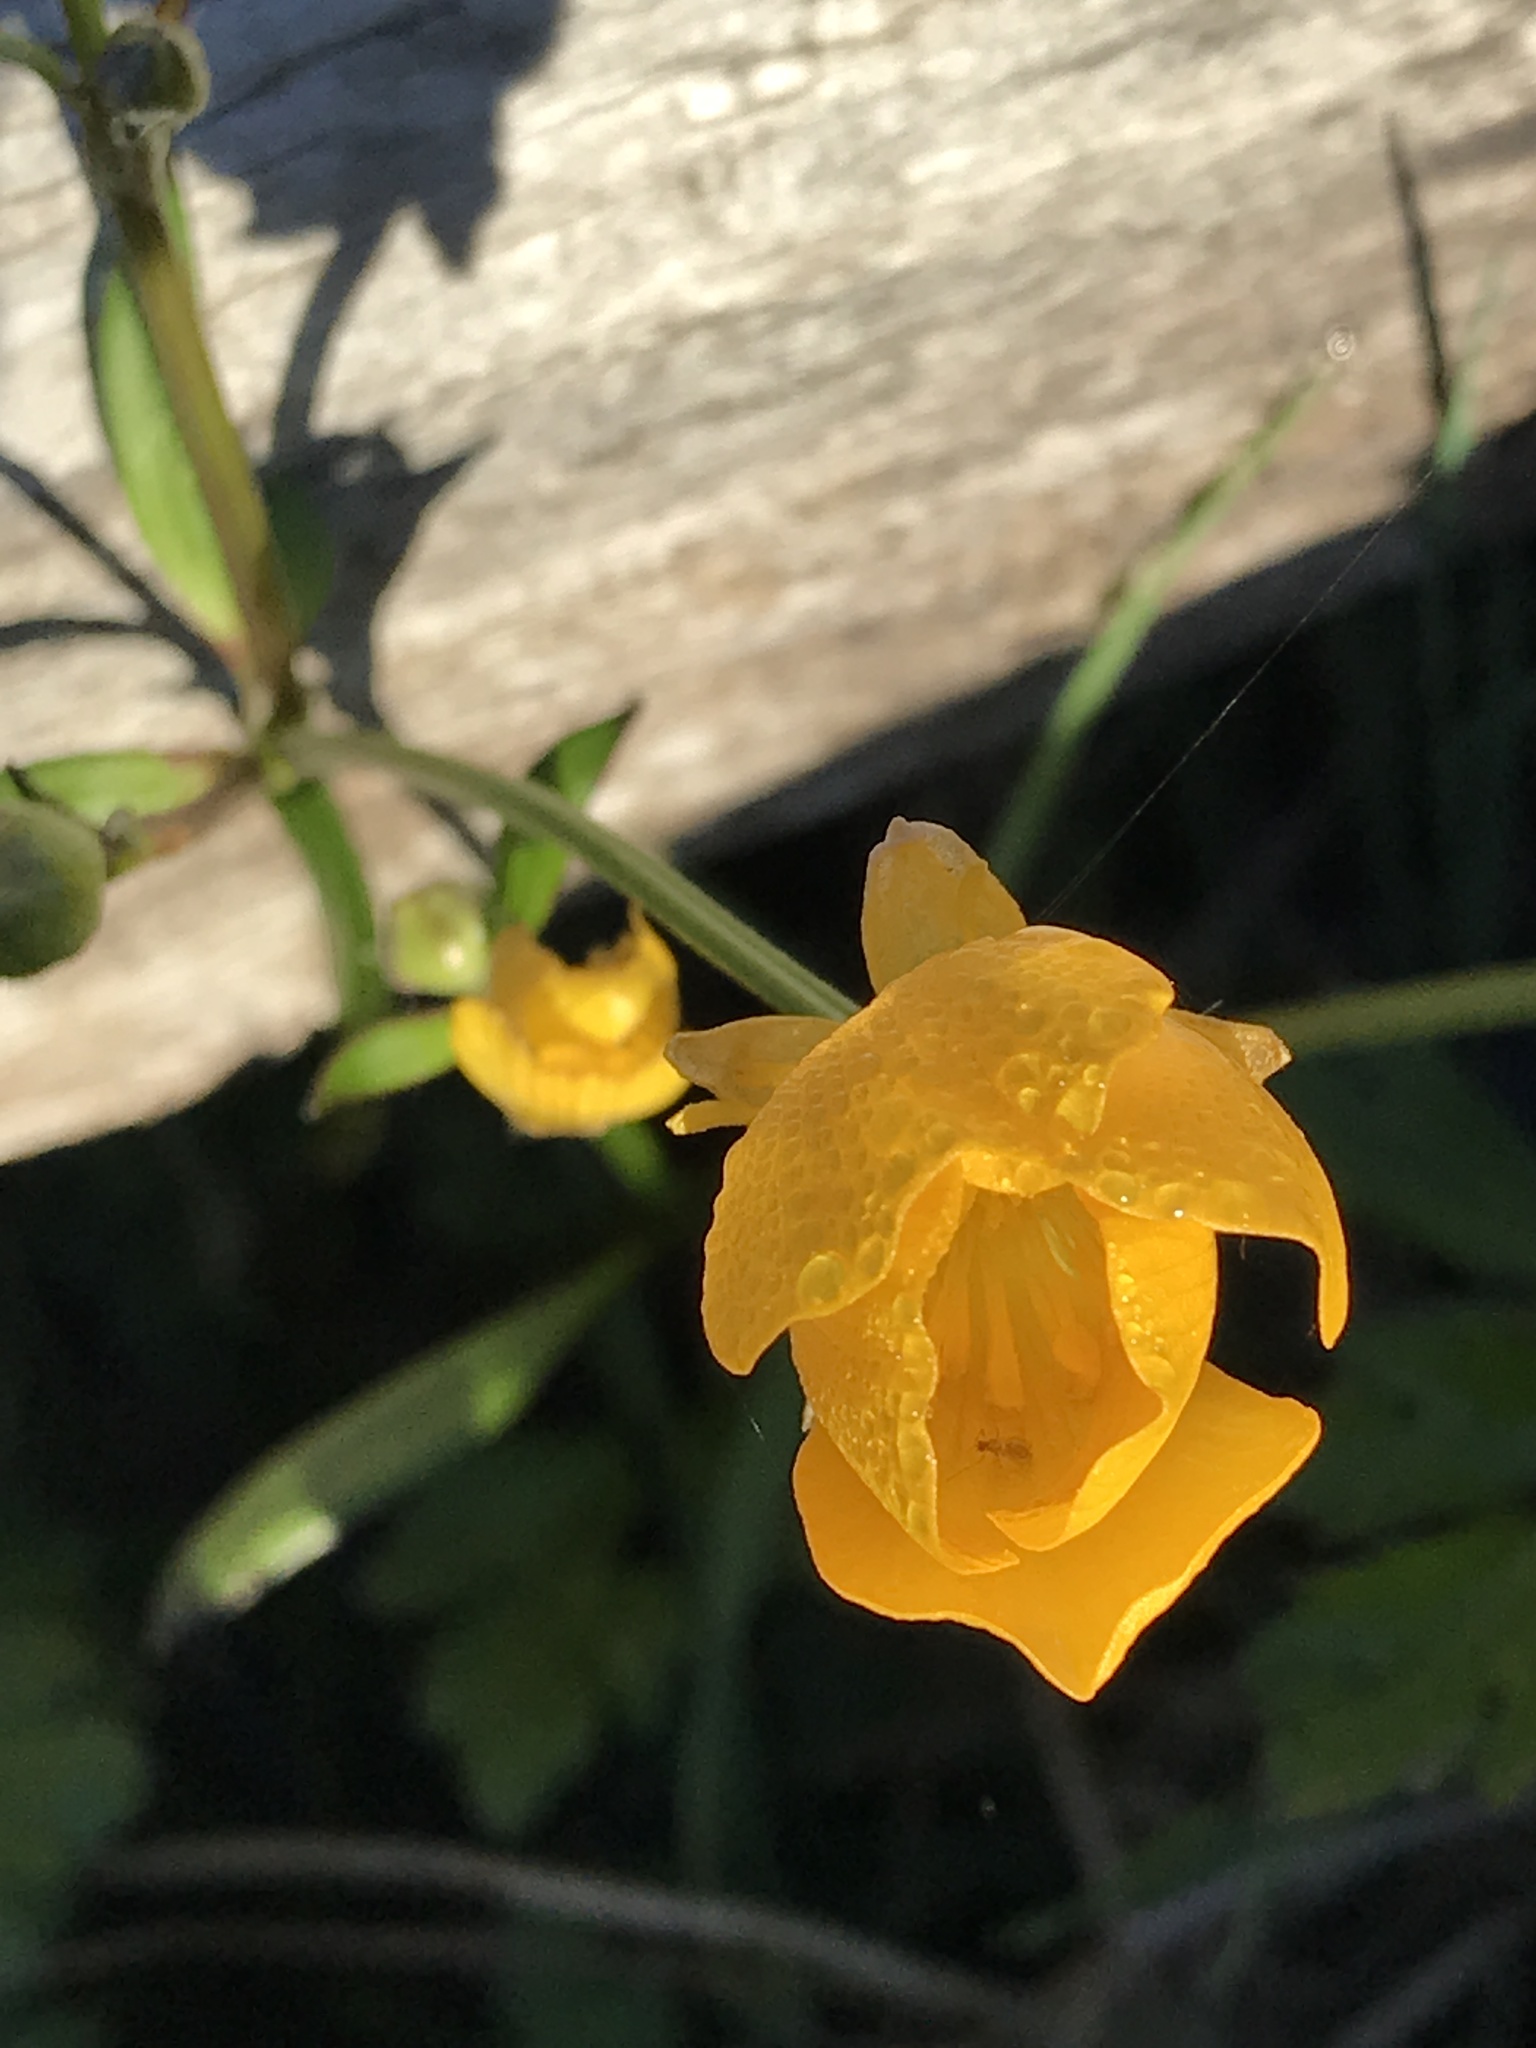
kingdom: Plantae
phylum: Tracheophyta
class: Magnoliopsida
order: Ranunculales
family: Ranunculaceae
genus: Ranunculus
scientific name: Ranunculus repens
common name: Creeping buttercup
